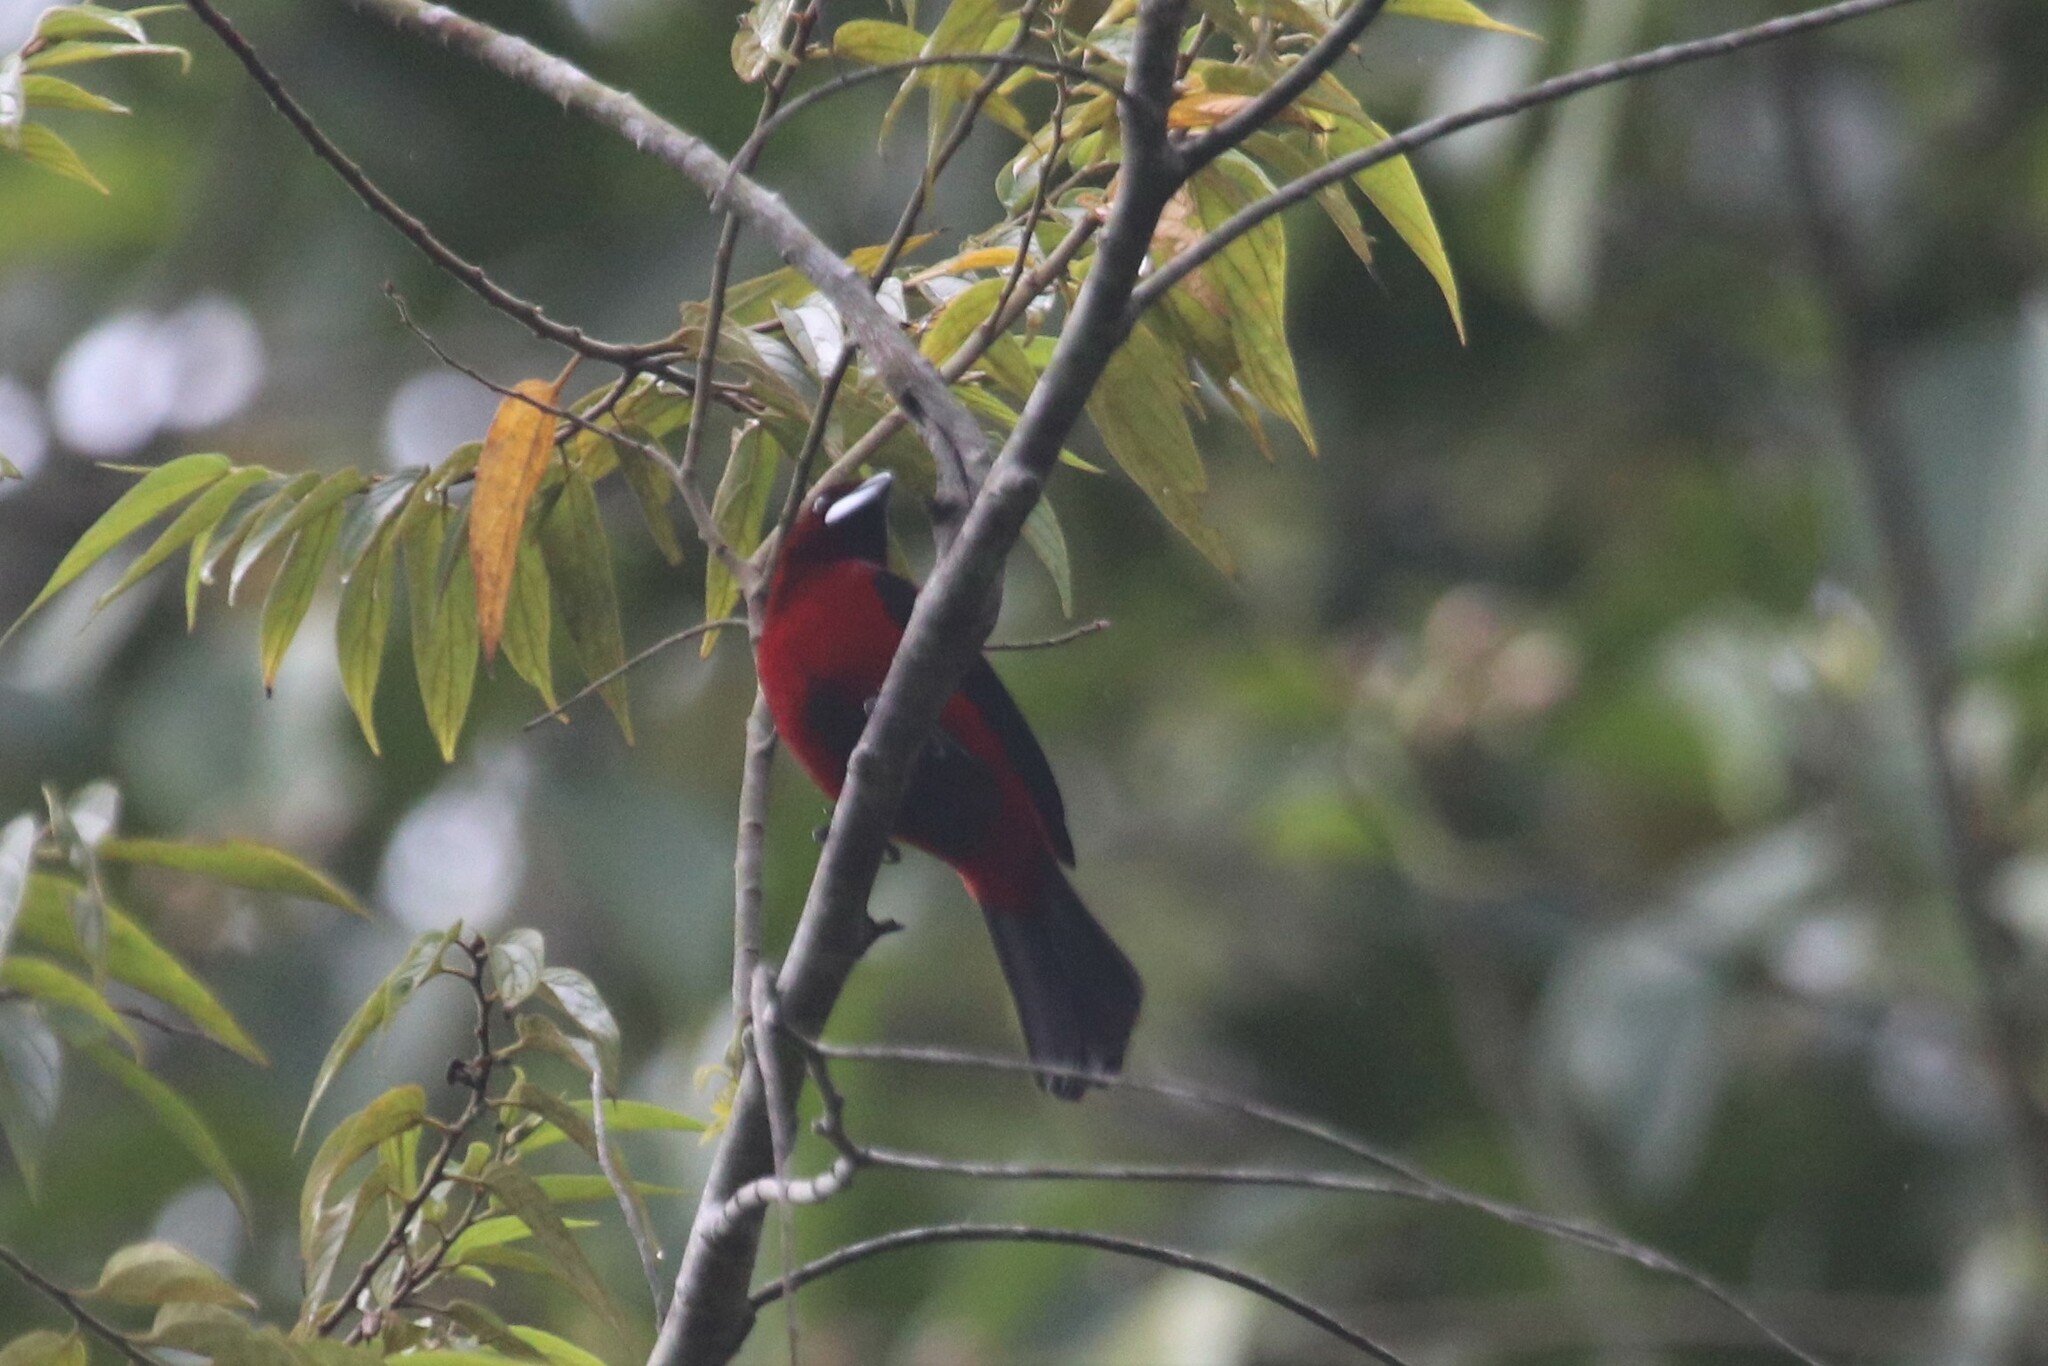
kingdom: Animalia
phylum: Chordata
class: Aves
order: Passeriformes
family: Thraupidae
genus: Ramphocelus
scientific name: Ramphocelus dimidiatus
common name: Crimson-backed tanager
